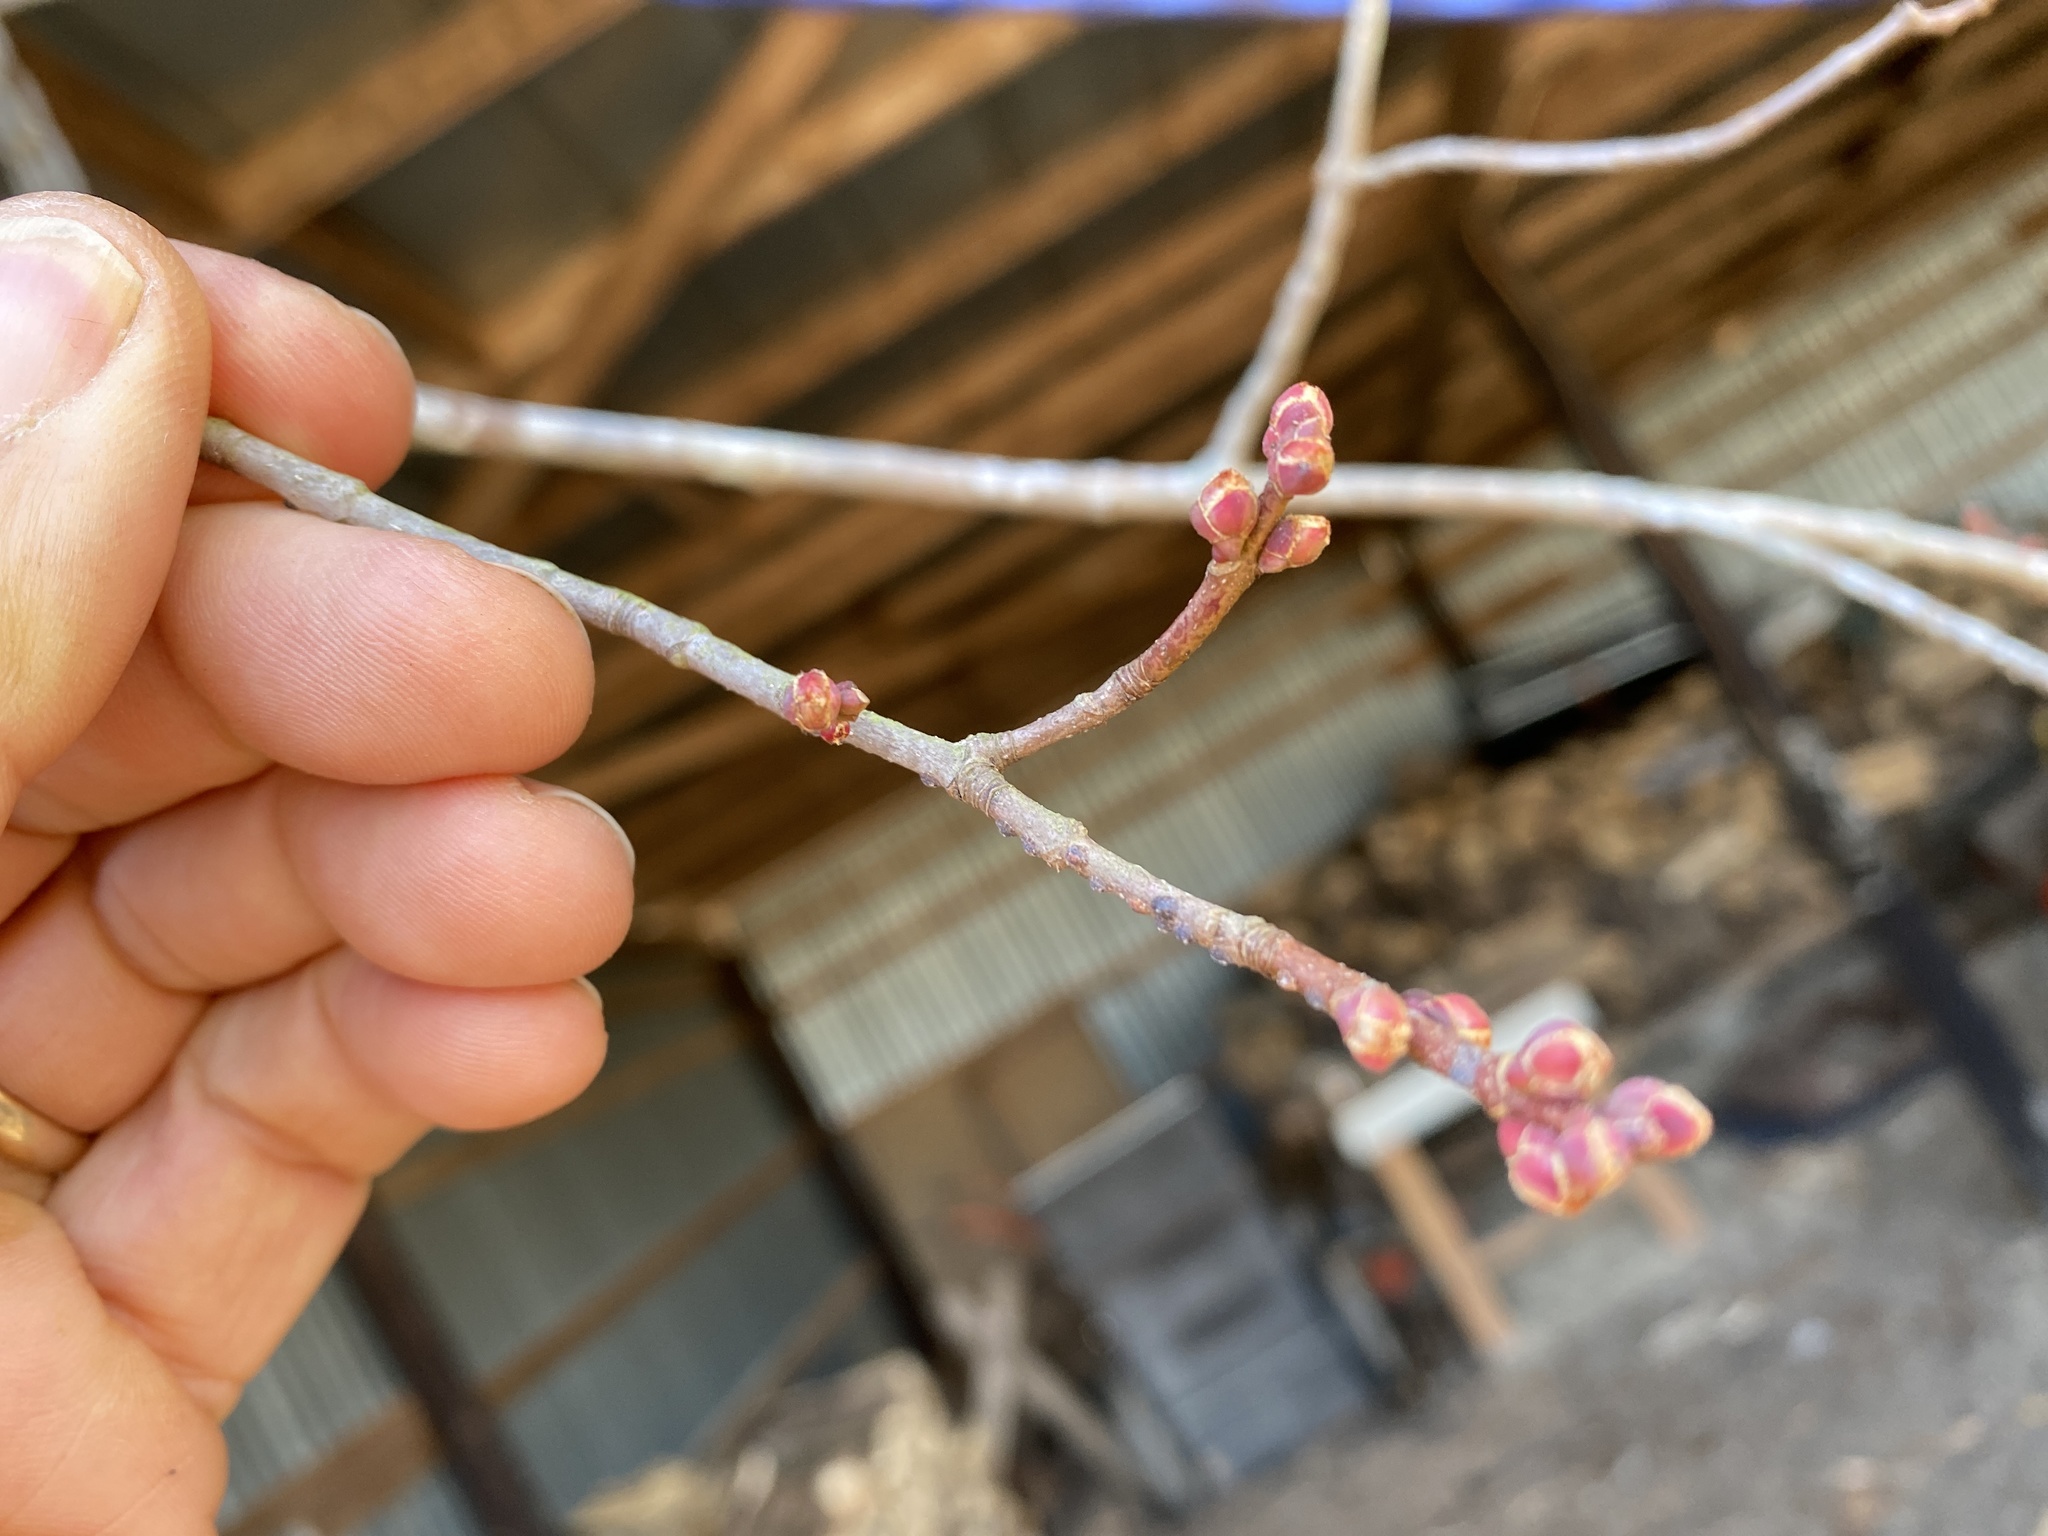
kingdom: Plantae
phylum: Tracheophyta
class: Magnoliopsida
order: Sapindales
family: Sapindaceae
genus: Acer
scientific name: Acer rubrum
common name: Red maple
